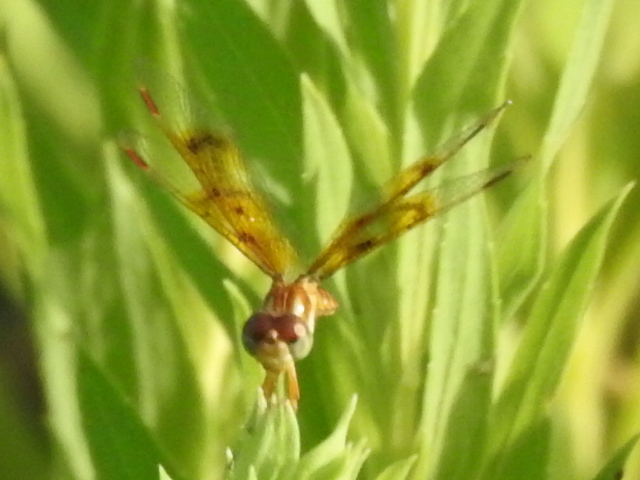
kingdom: Animalia
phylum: Arthropoda
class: Insecta
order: Odonata
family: Libellulidae
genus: Perithemis
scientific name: Perithemis tenera
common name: Eastern amberwing
